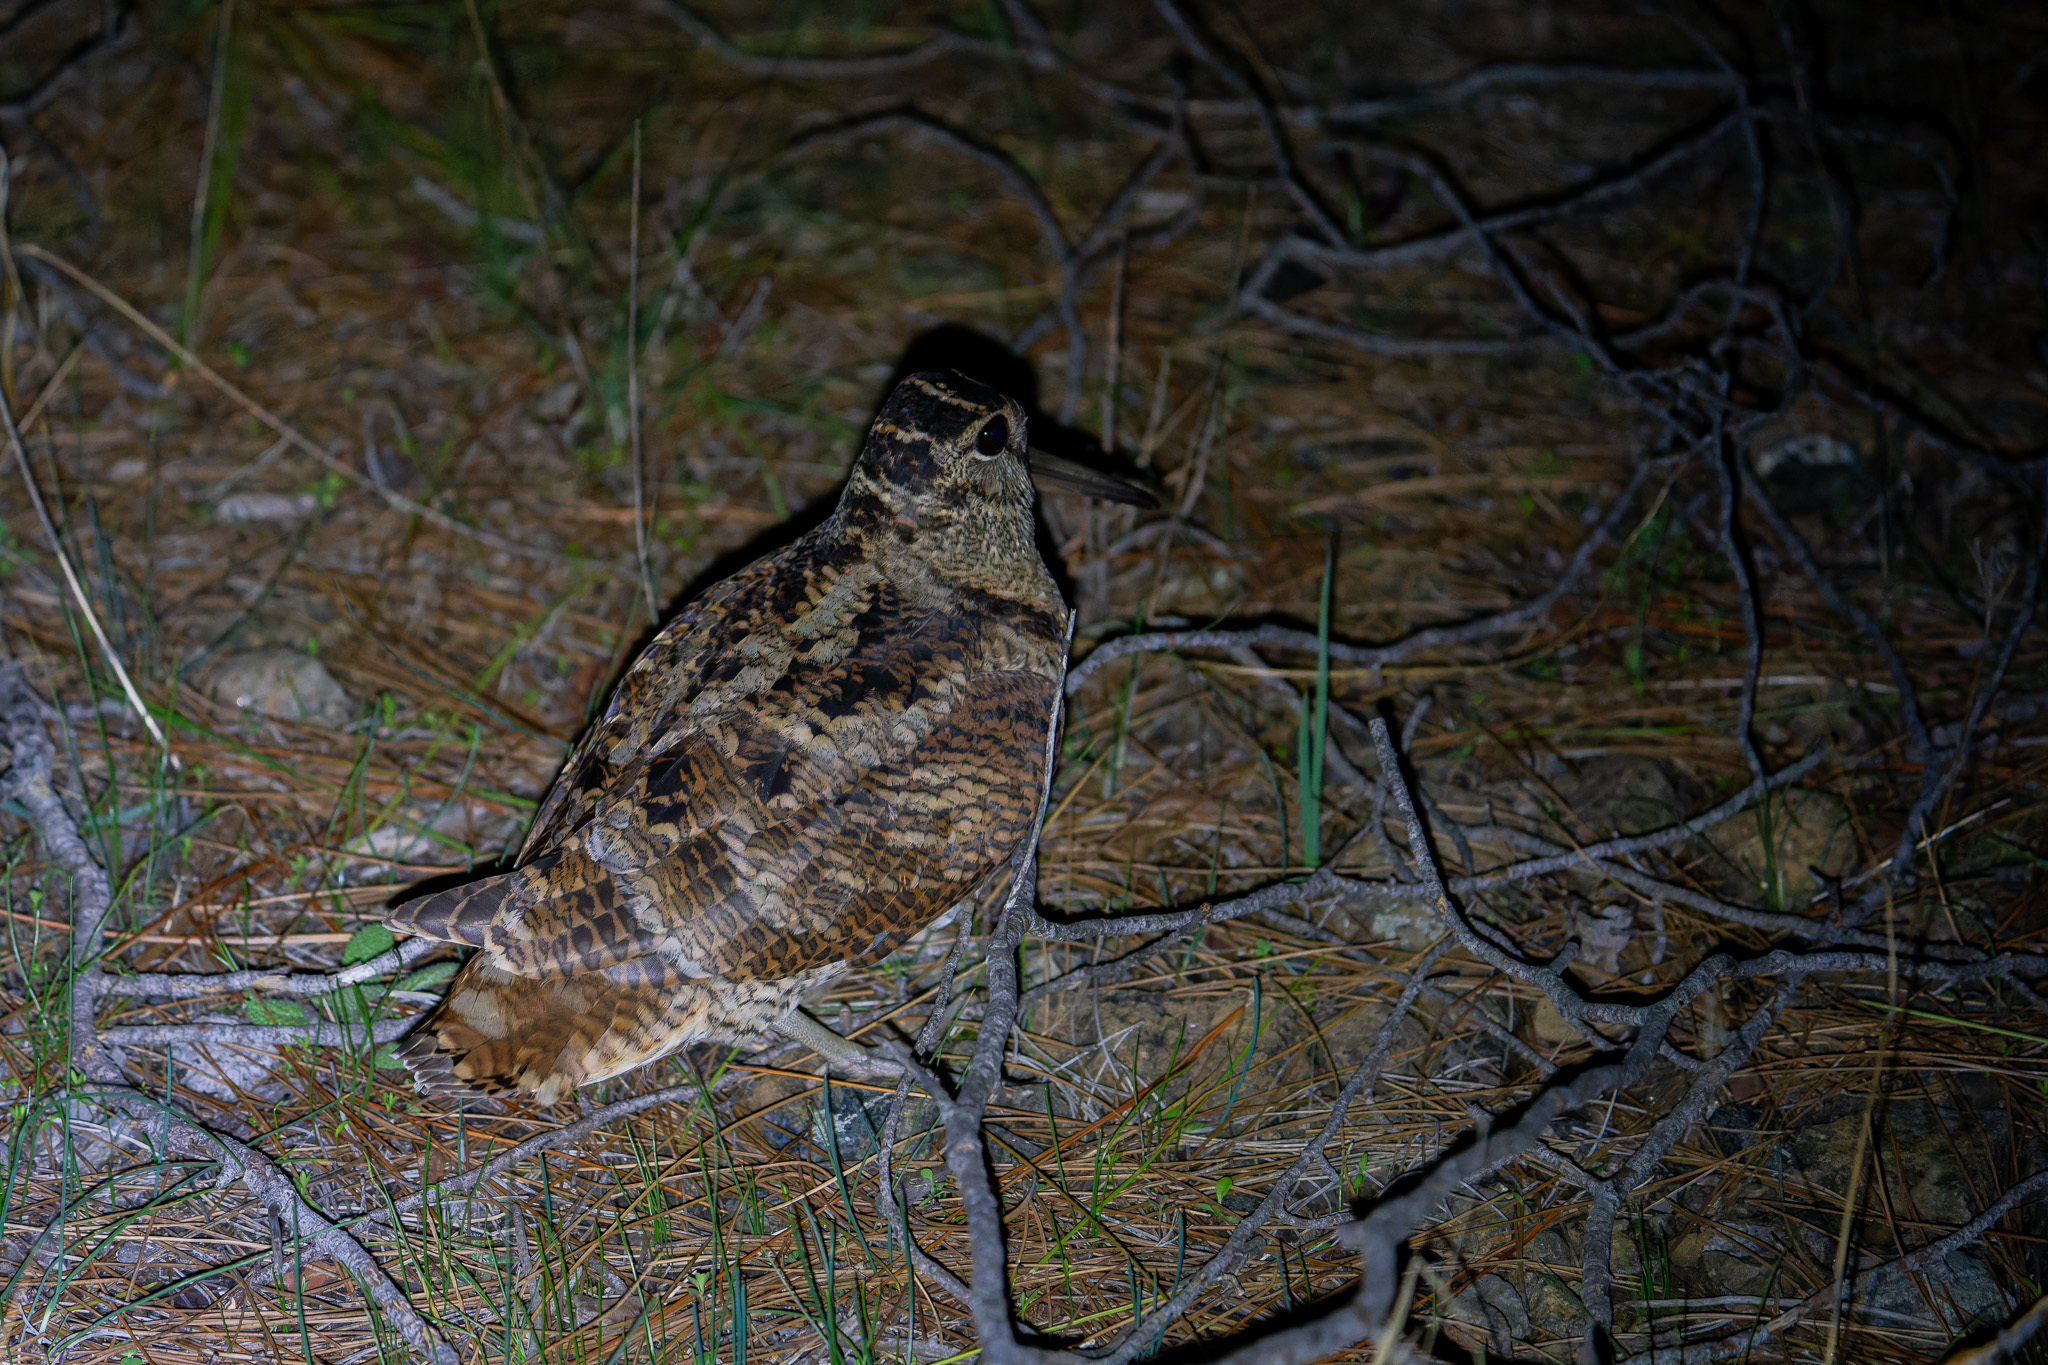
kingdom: Animalia
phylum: Chordata
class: Aves
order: Charadriiformes
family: Scolopacidae
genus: Scolopax
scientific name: Scolopax rusticola
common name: Eurasian woodcock
